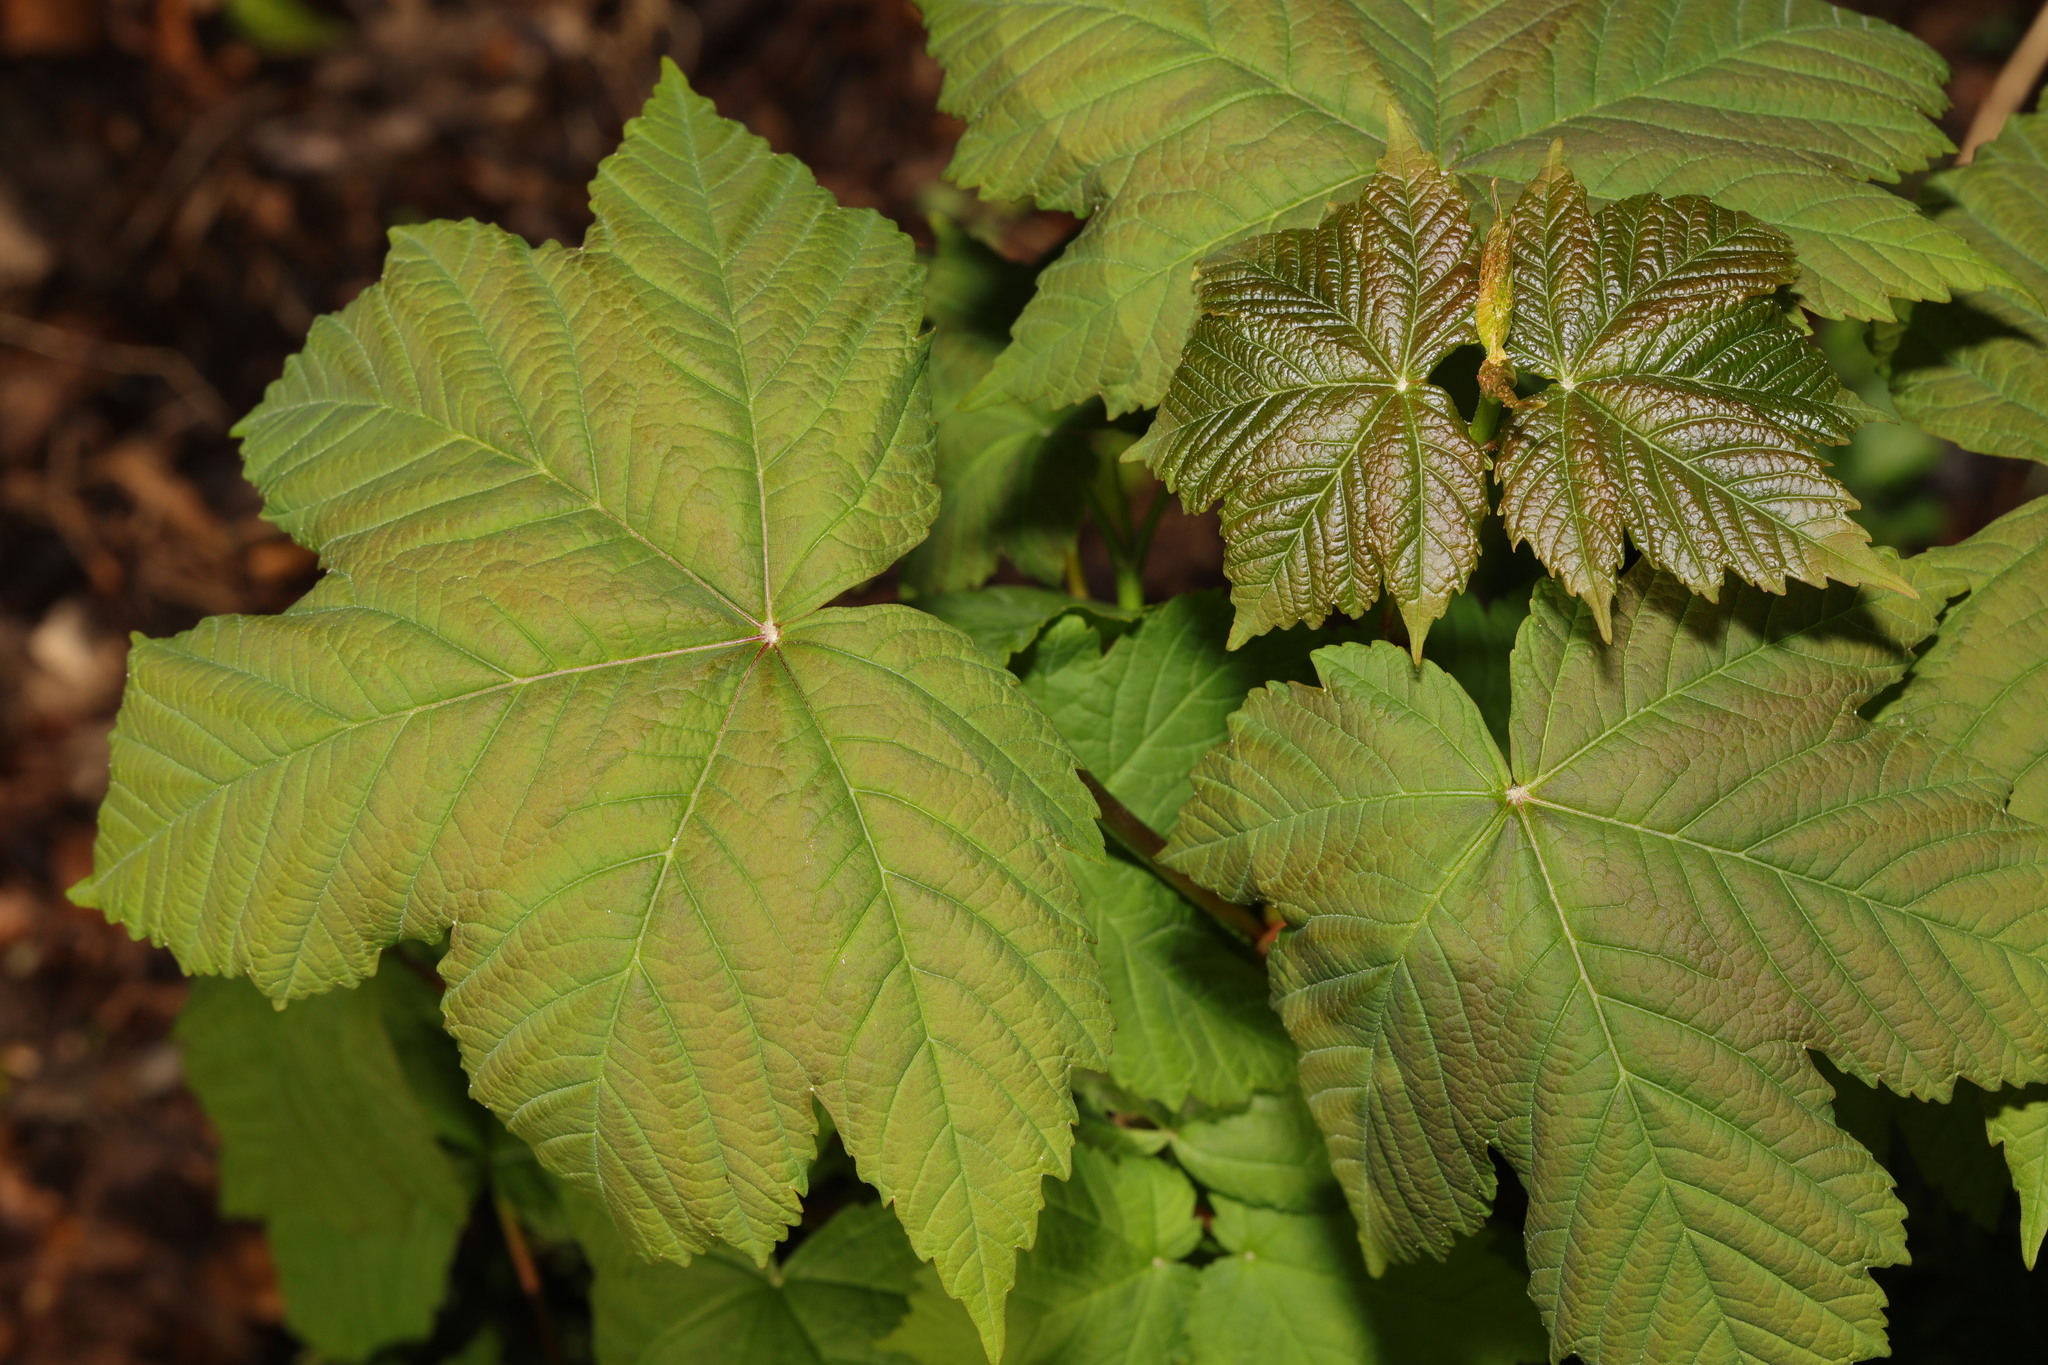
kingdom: Plantae
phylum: Tracheophyta
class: Magnoliopsida
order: Sapindales
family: Sapindaceae
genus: Acer
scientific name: Acer pseudoplatanus
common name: Sycamore
